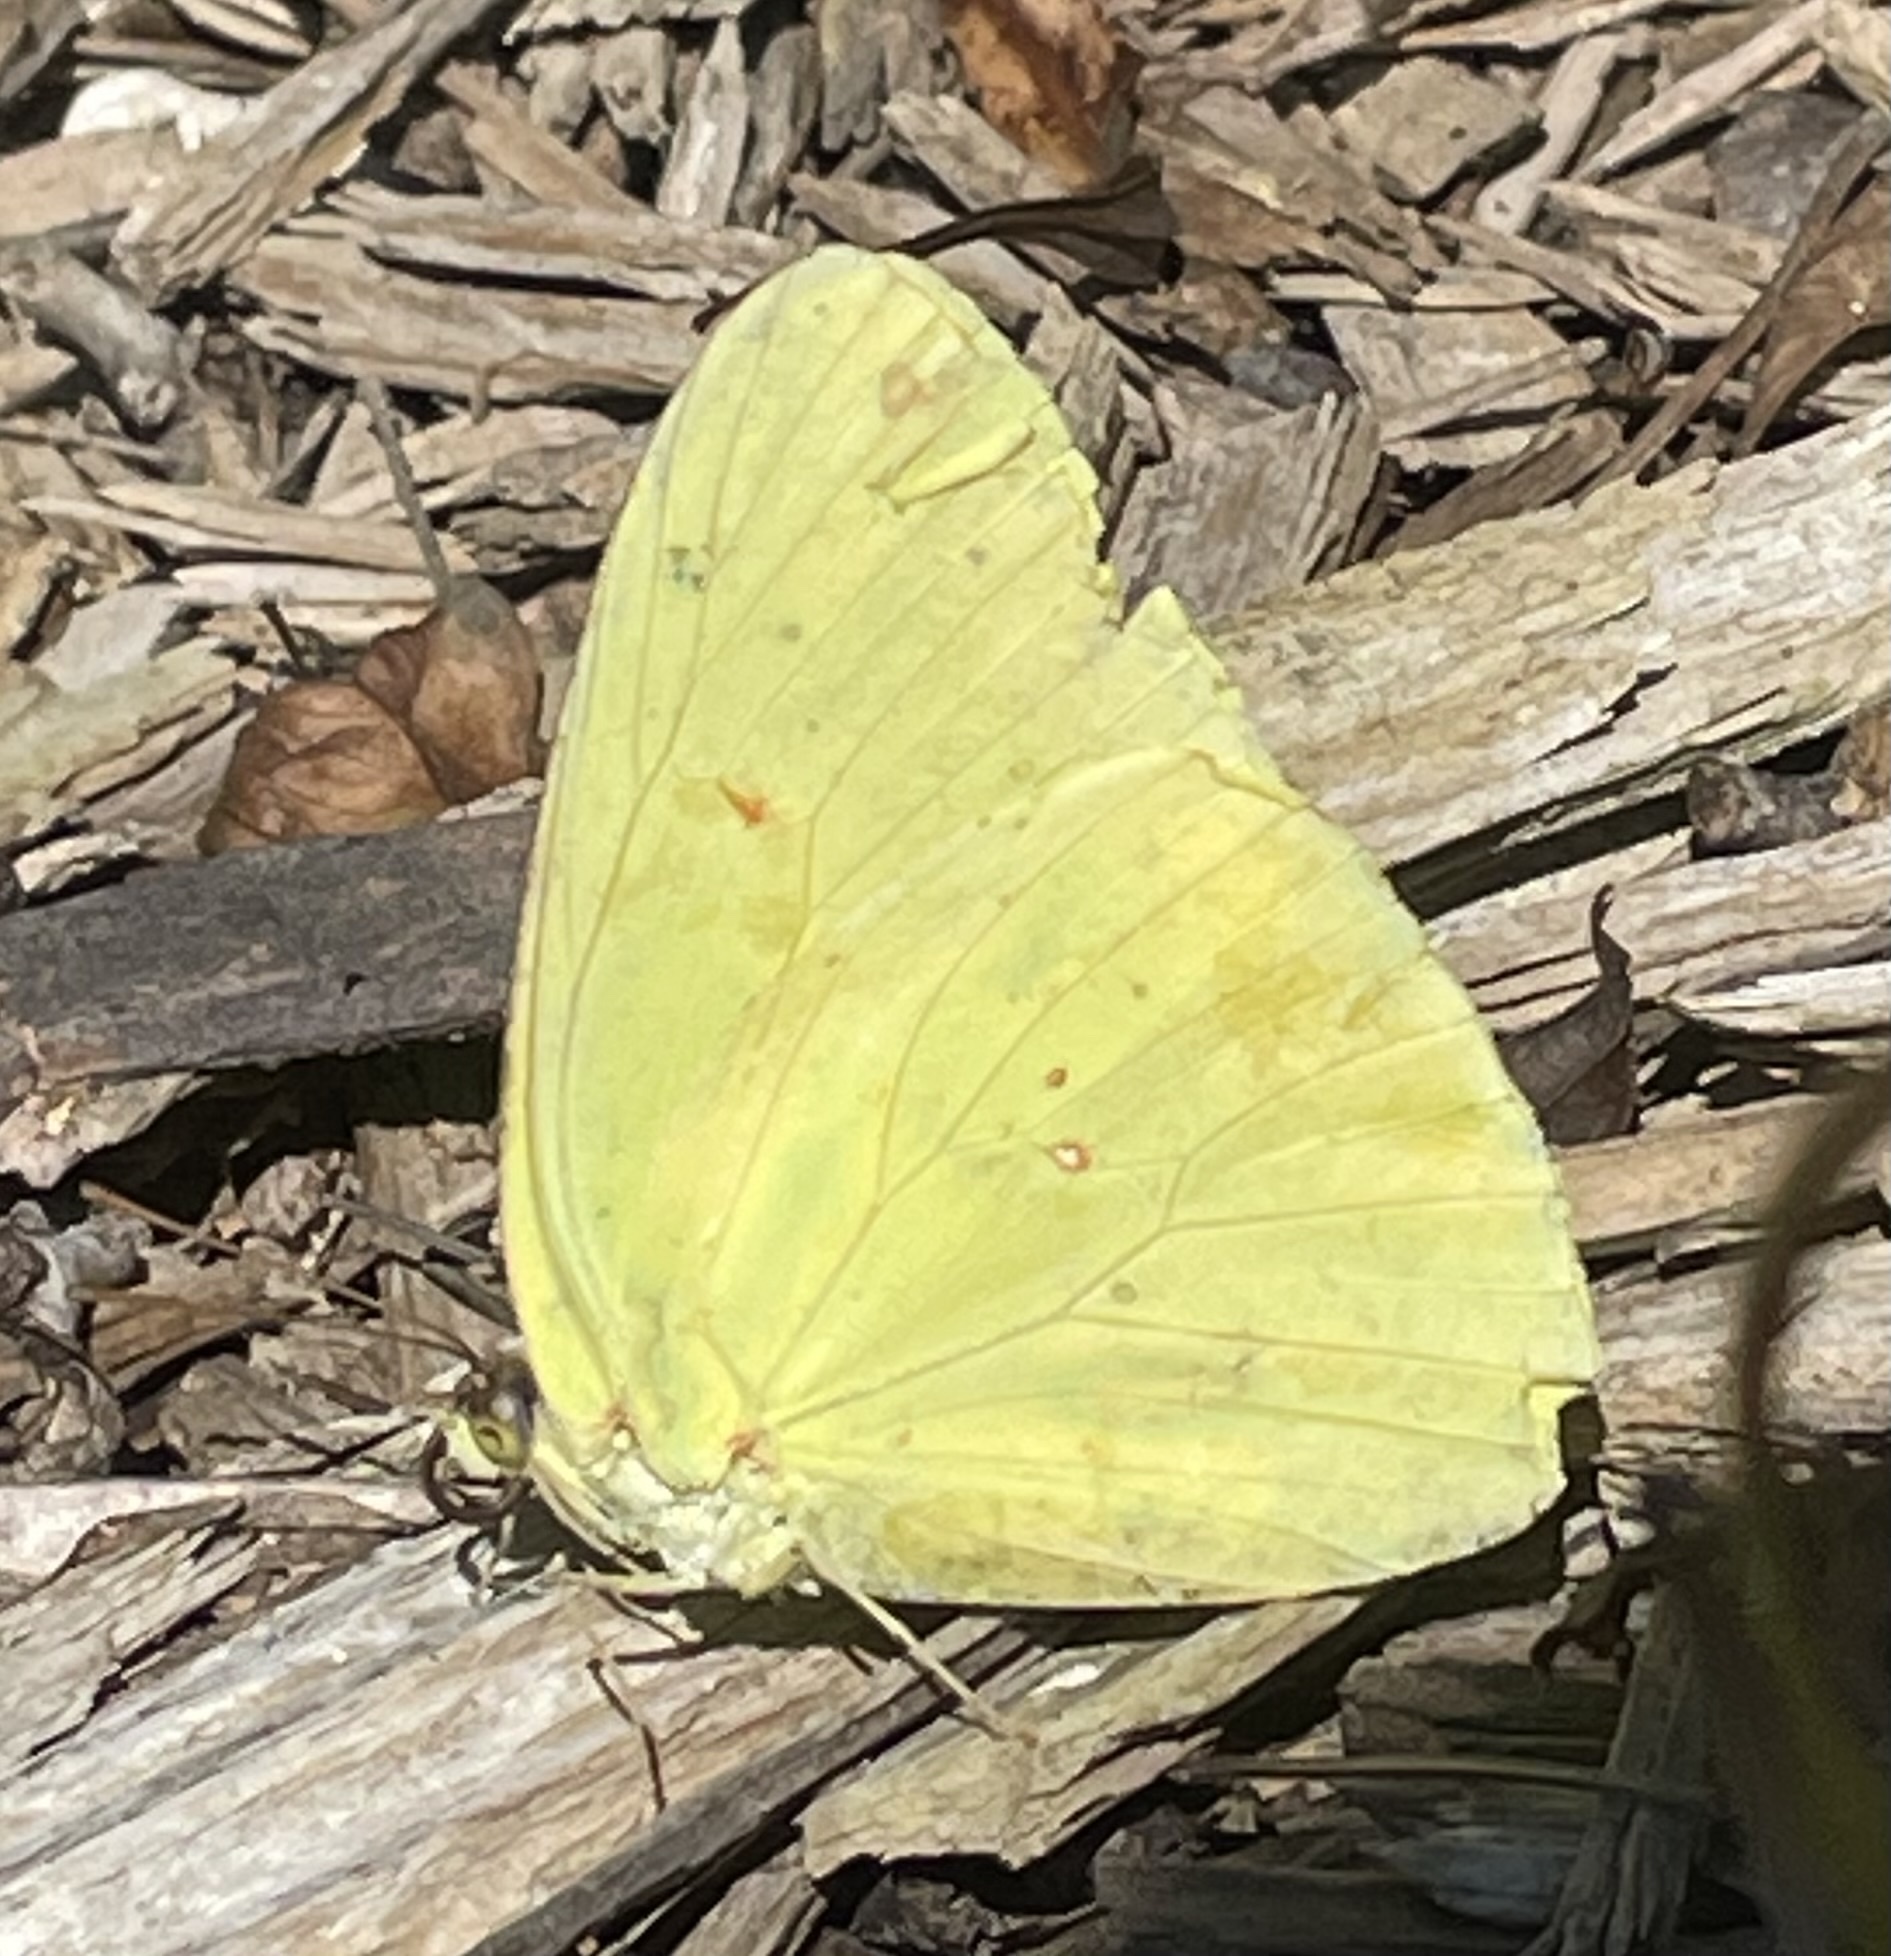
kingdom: Animalia
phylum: Arthropoda
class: Insecta
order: Lepidoptera
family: Pieridae
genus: Phoebis
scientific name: Phoebis sennae
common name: Cloudless sulphur
